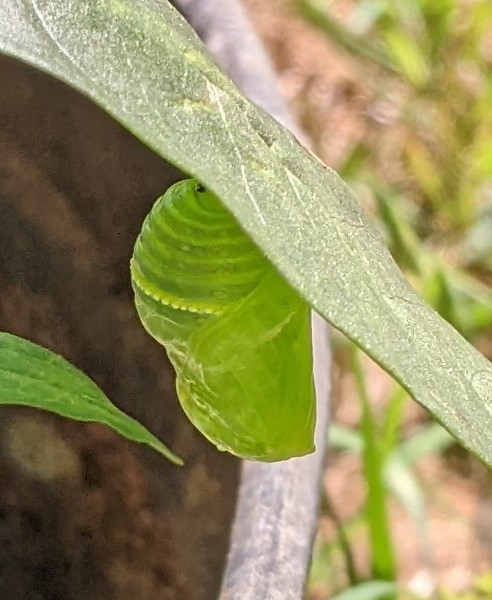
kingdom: Animalia
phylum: Arthropoda
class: Insecta
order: Lepidoptera
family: Nymphalidae
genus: Danaus
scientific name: Danaus plexippus
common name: Monarch
